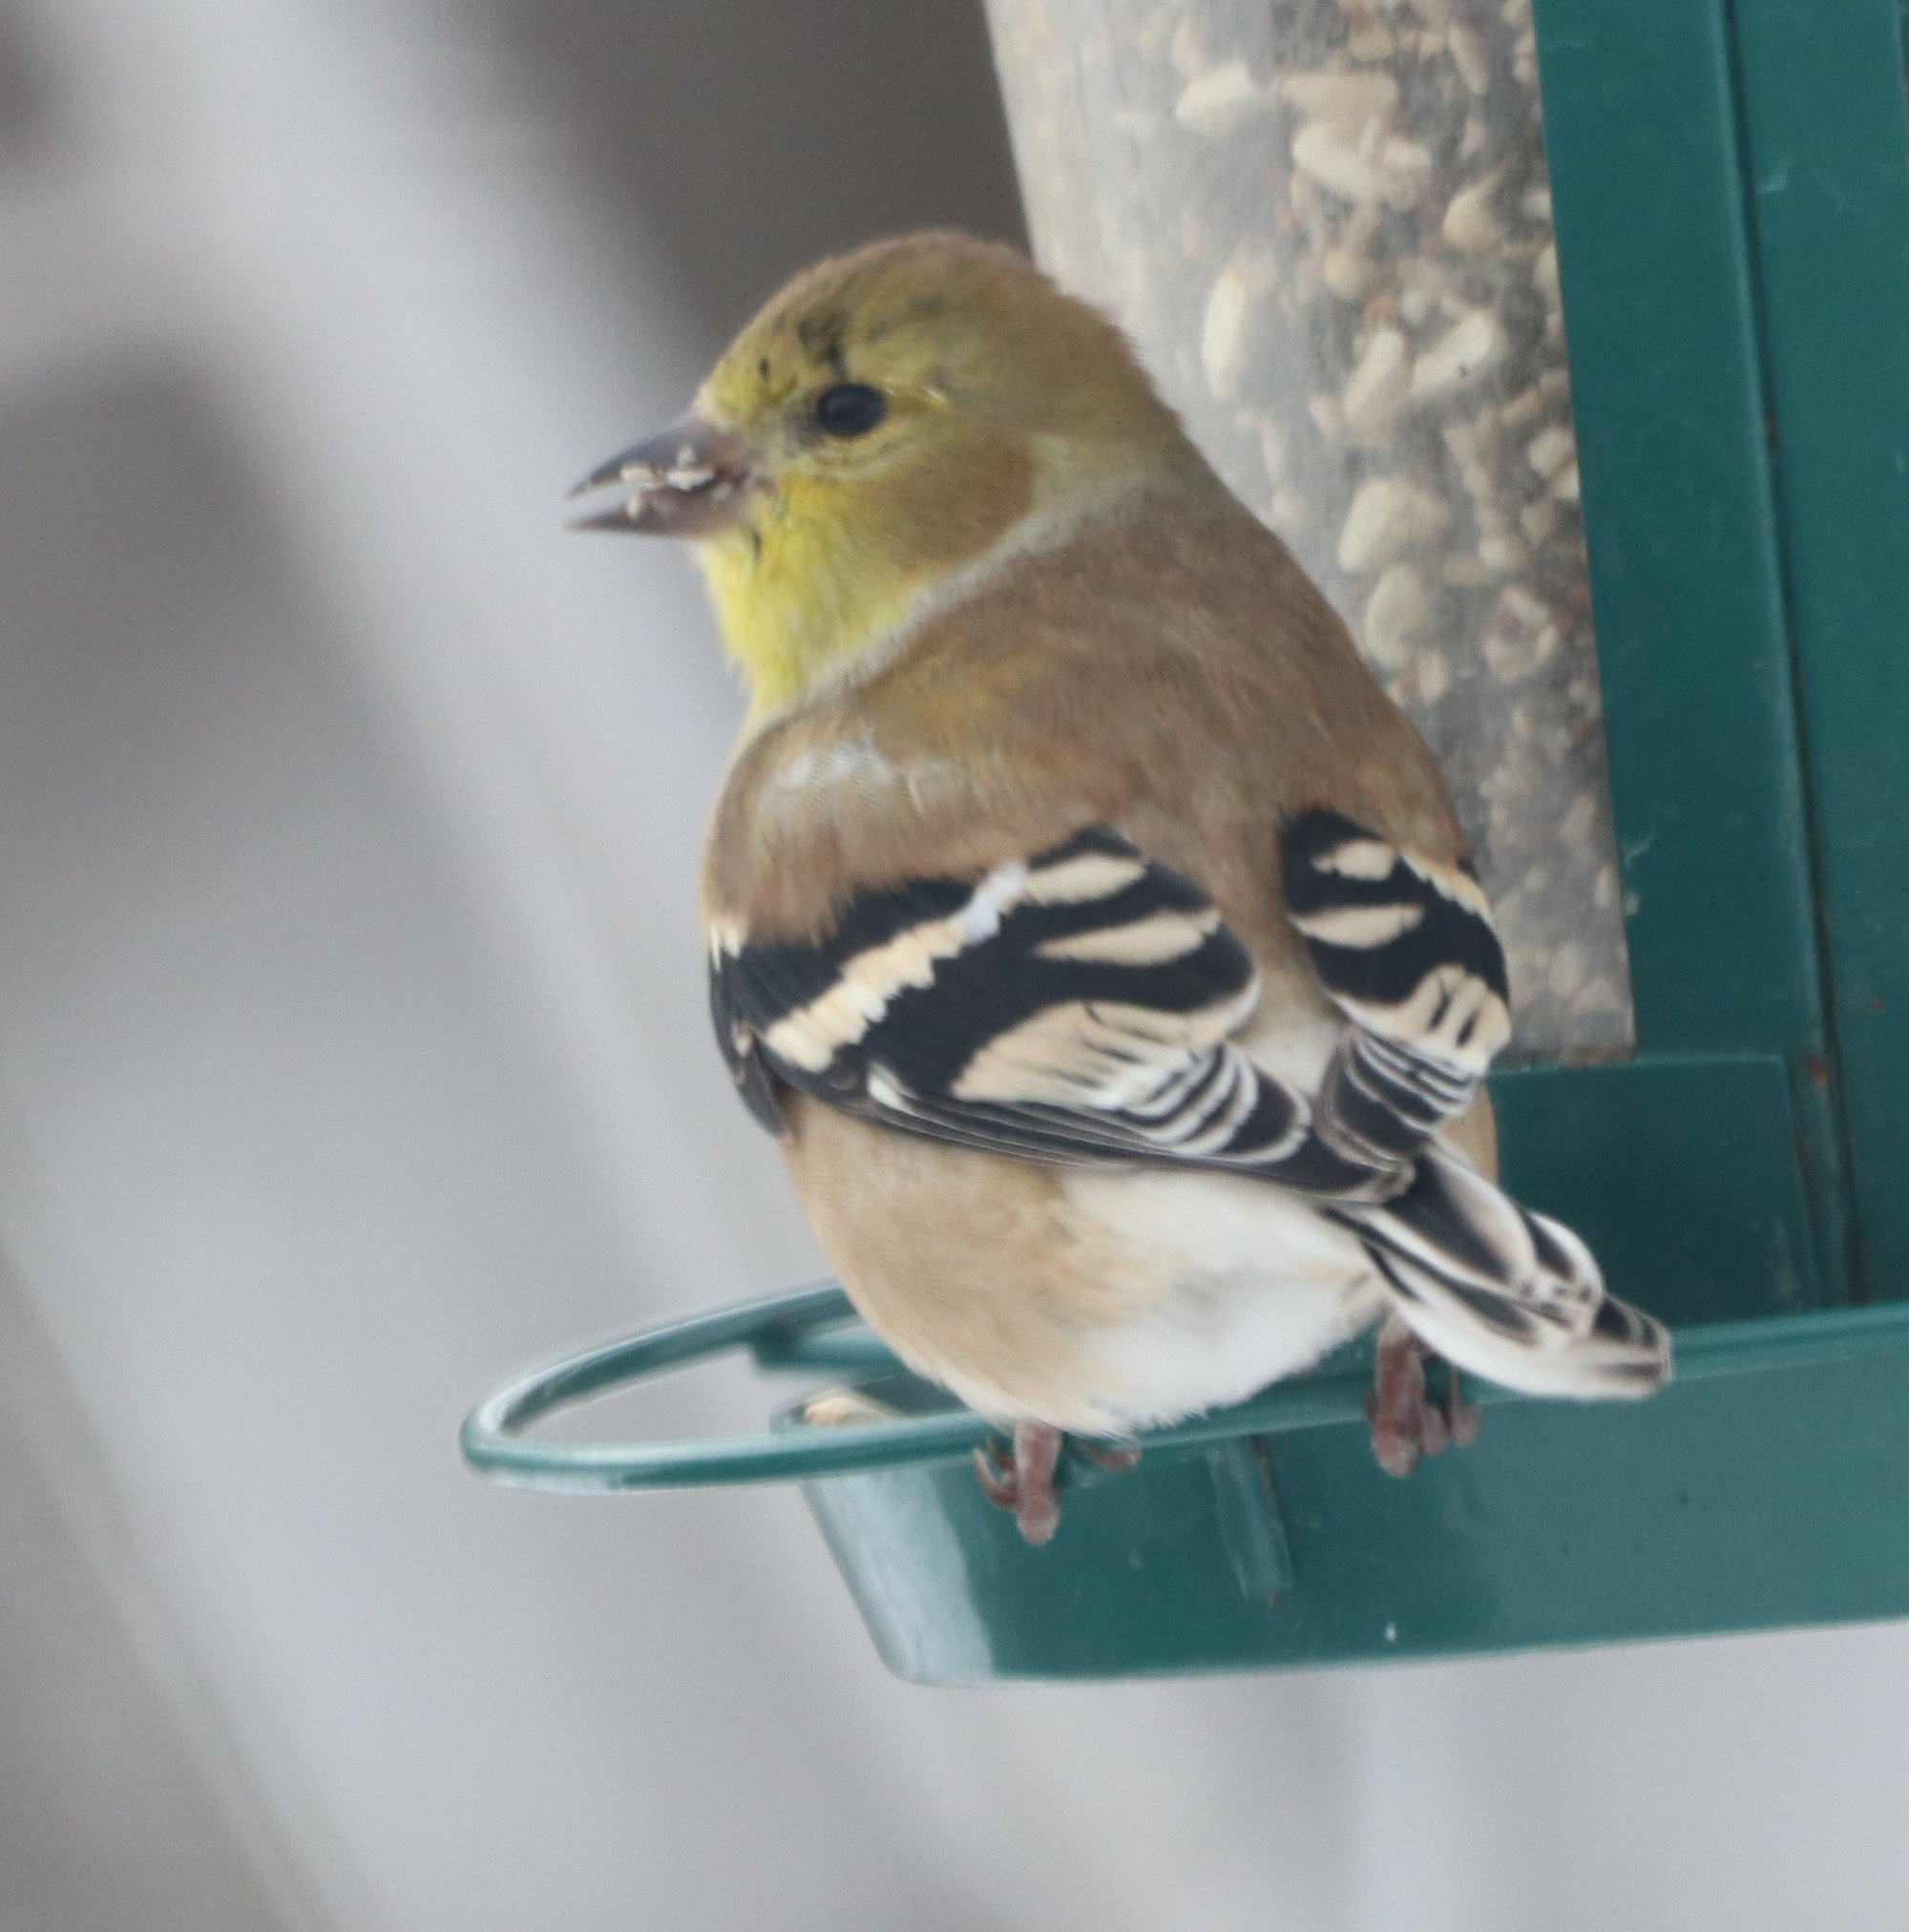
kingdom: Animalia
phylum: Chordata
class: Aves
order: Passeriformes
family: Fringillidae
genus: Spinus
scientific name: Spinus tristis
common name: American goldfinch
